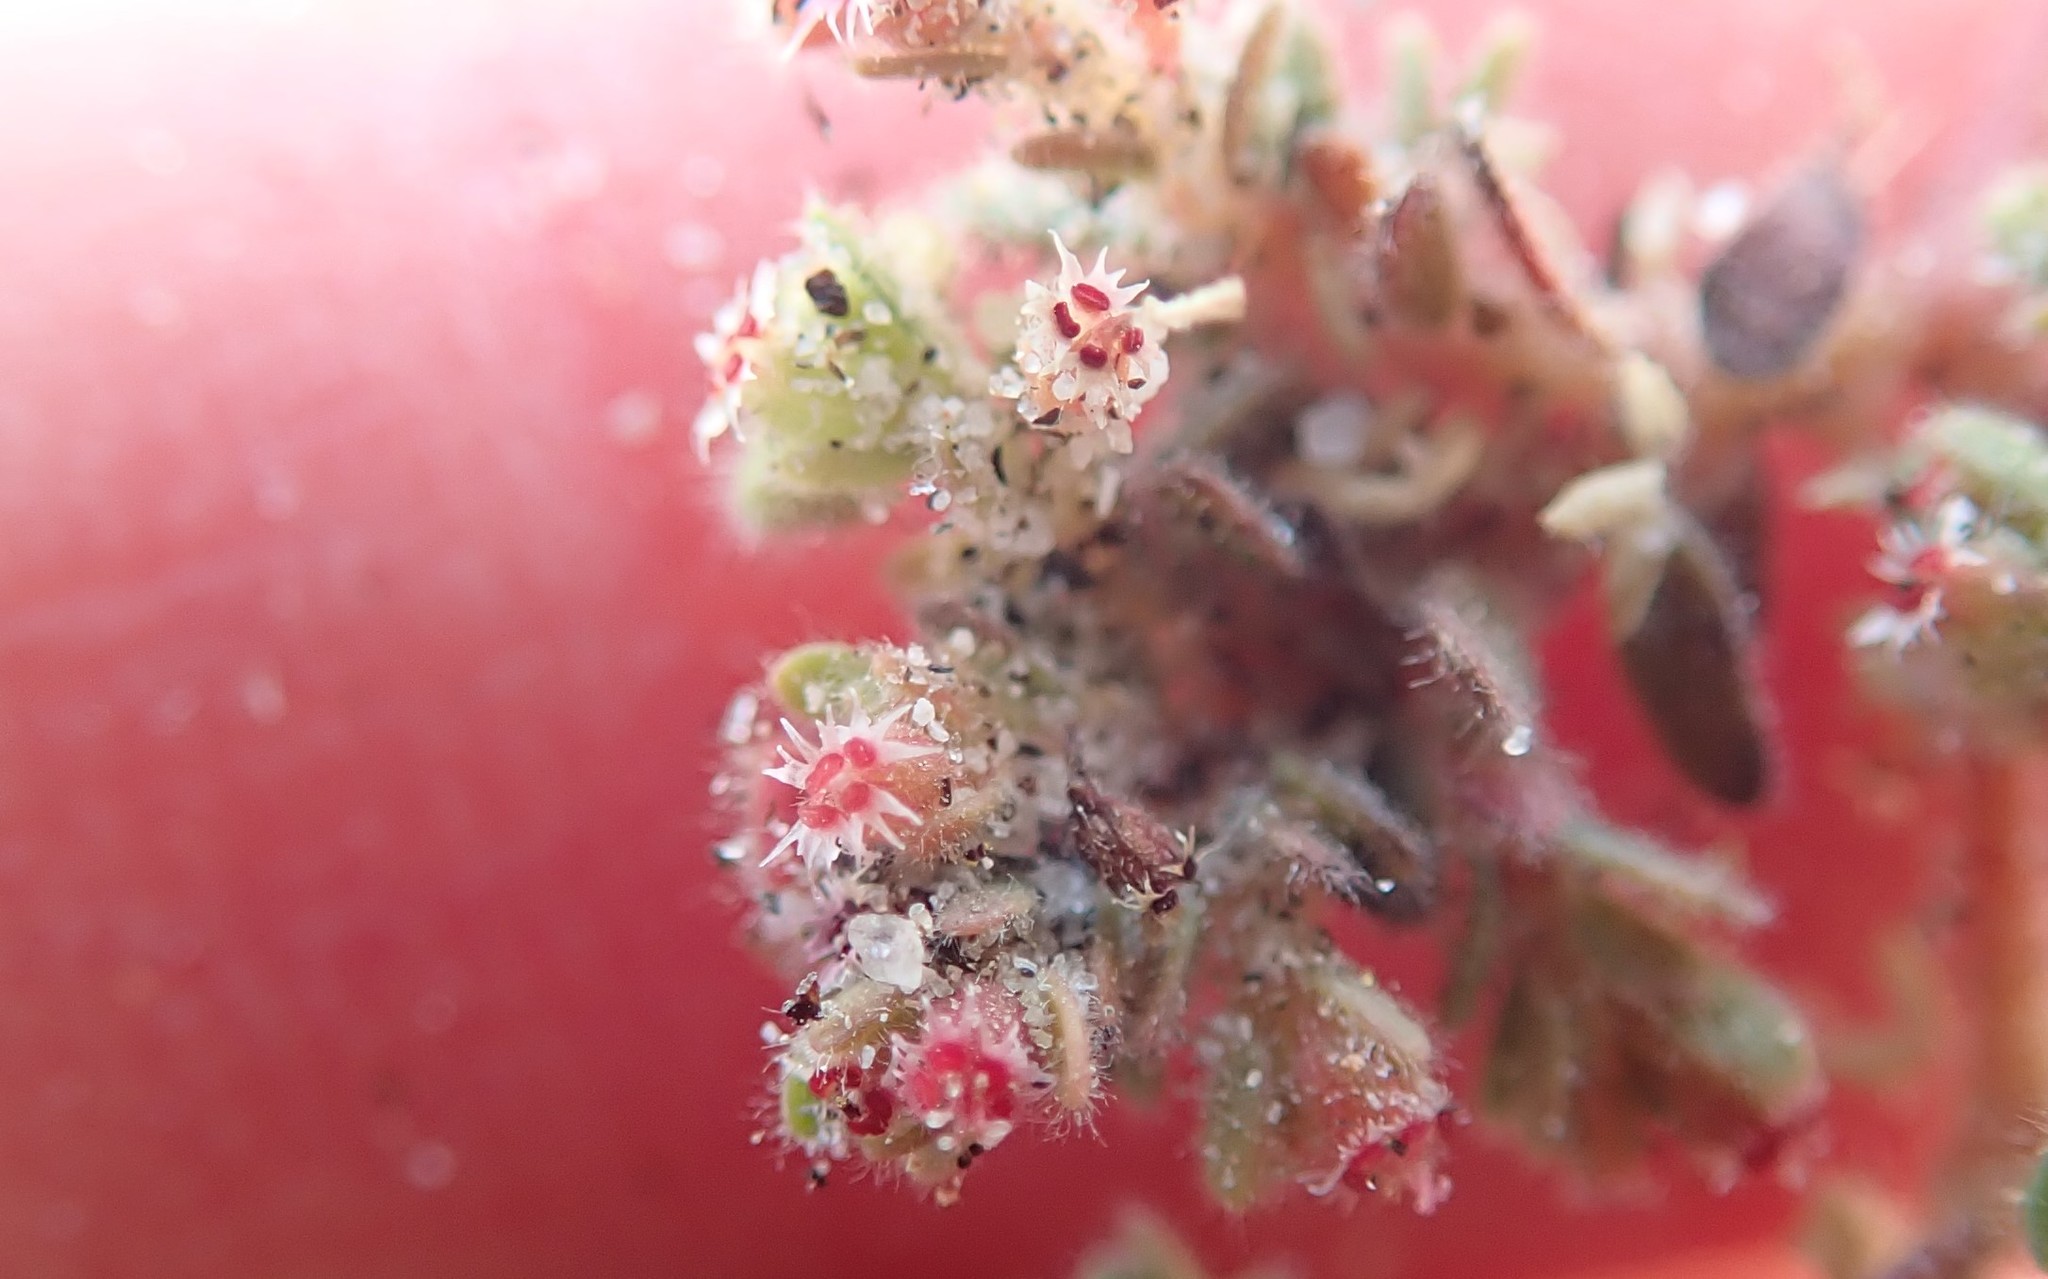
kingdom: Plantae
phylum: Tracheophyta
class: Magnoliopsida
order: Malpighiales
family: Euphorbiaceae
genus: Euphorbia
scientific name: Euphorbia setiloba
